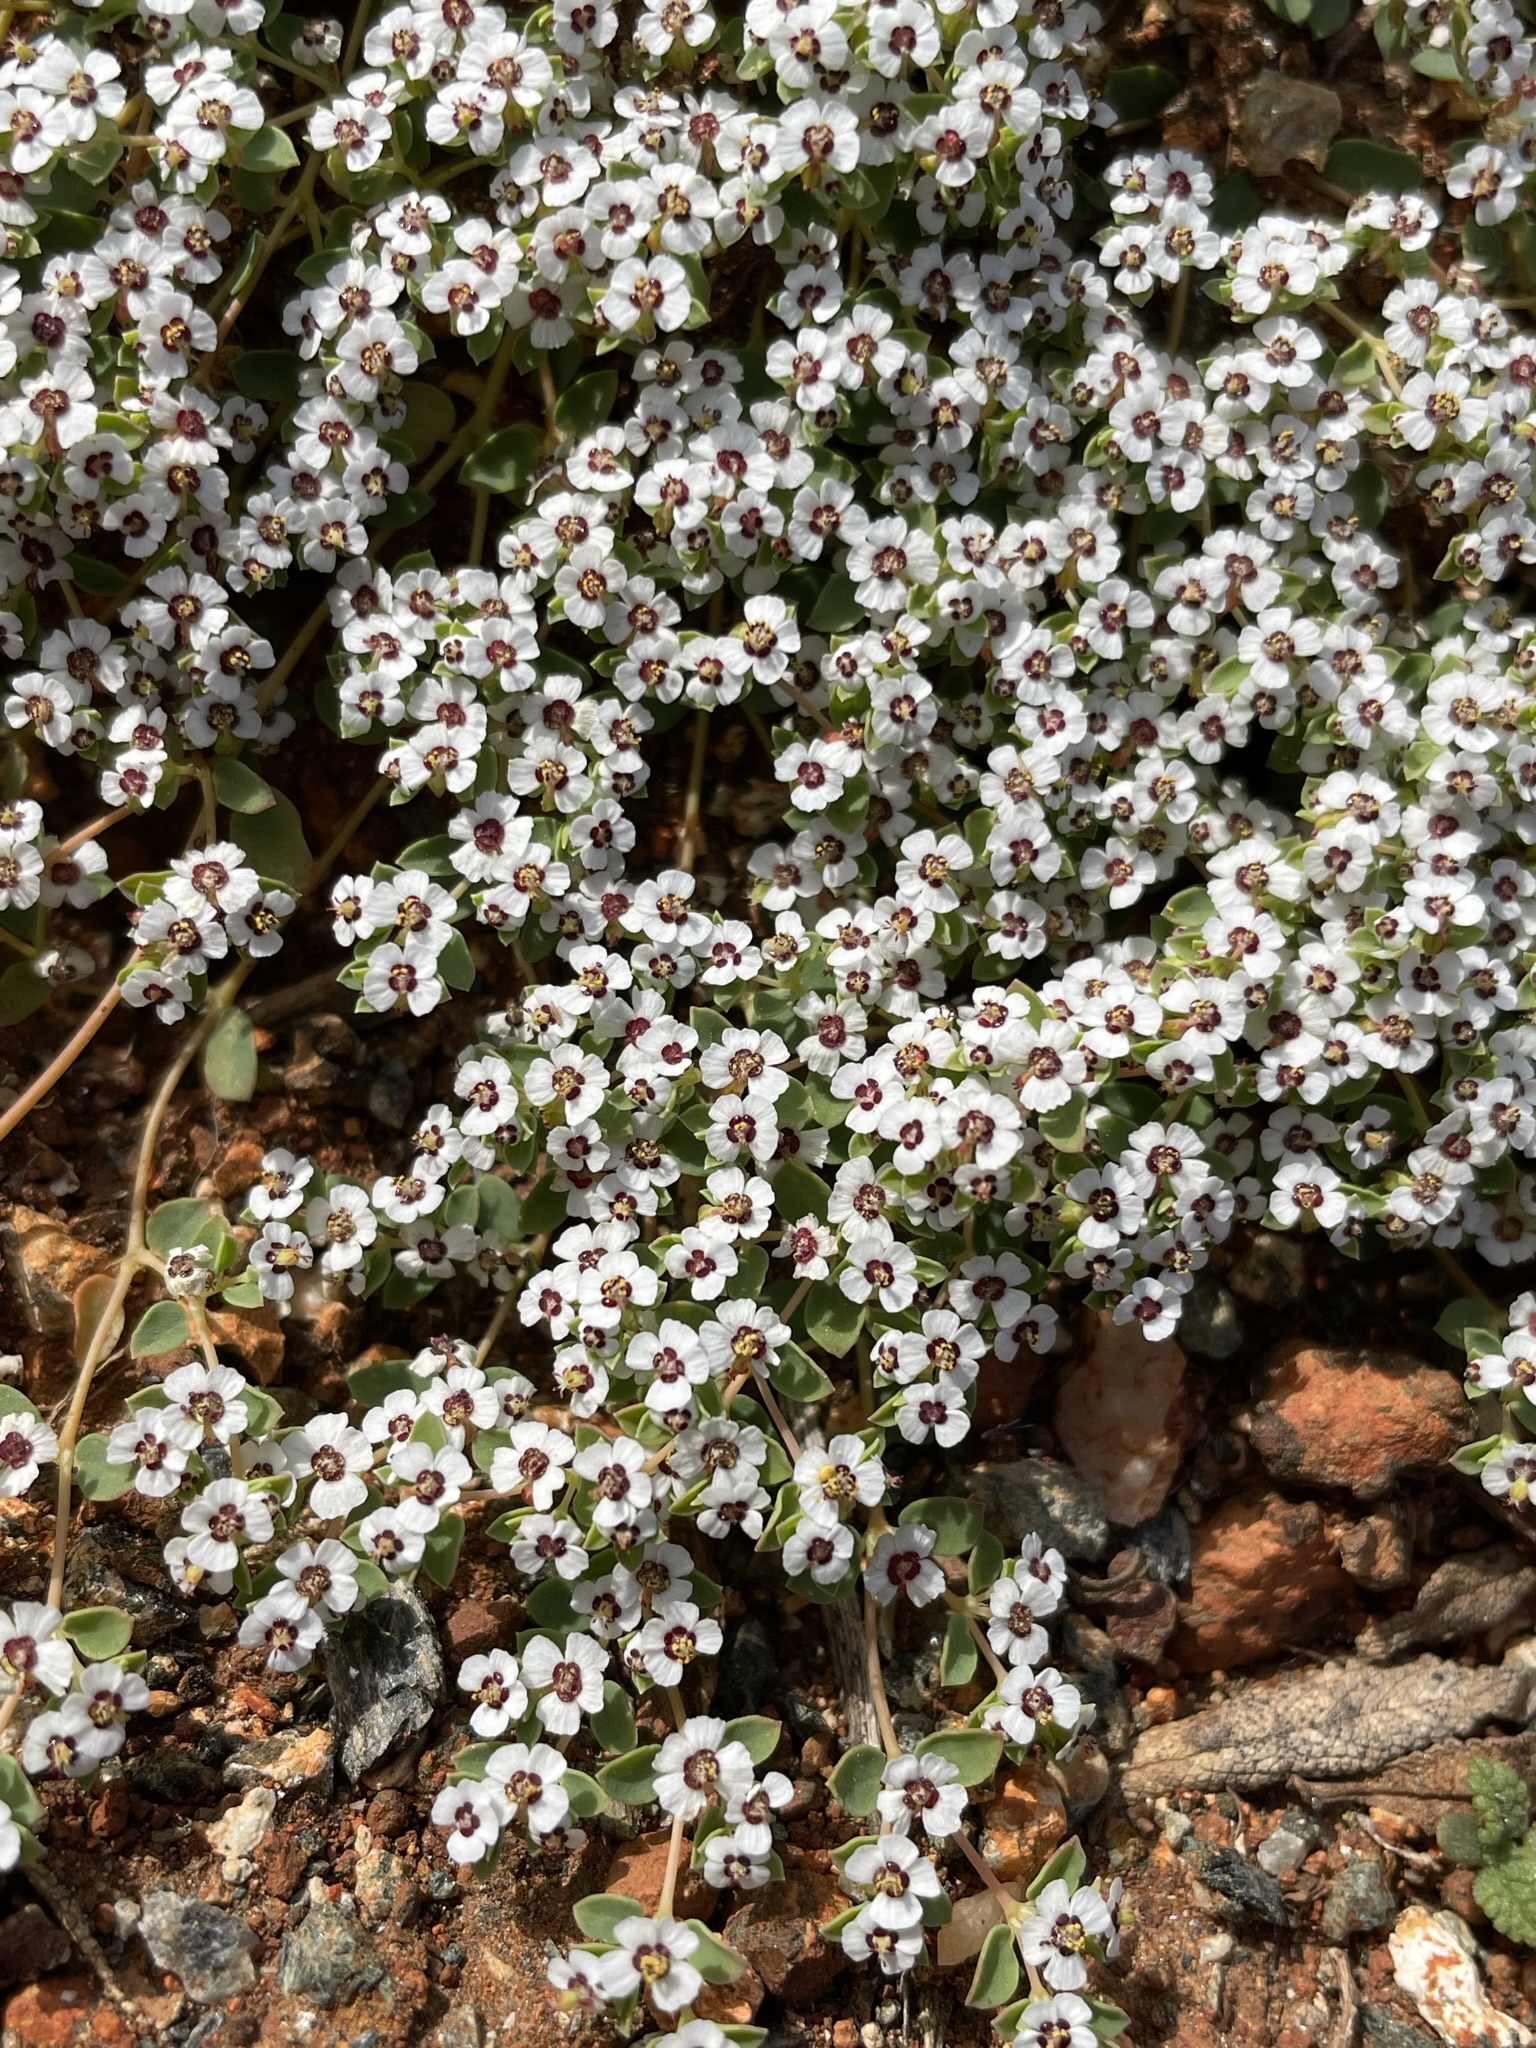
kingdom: Plantae
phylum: Tracheophyta
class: Magnoliopsida
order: Malpighiales
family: Euphorbiaceae
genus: Euphorbia
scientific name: Euphorbia polycarpa
